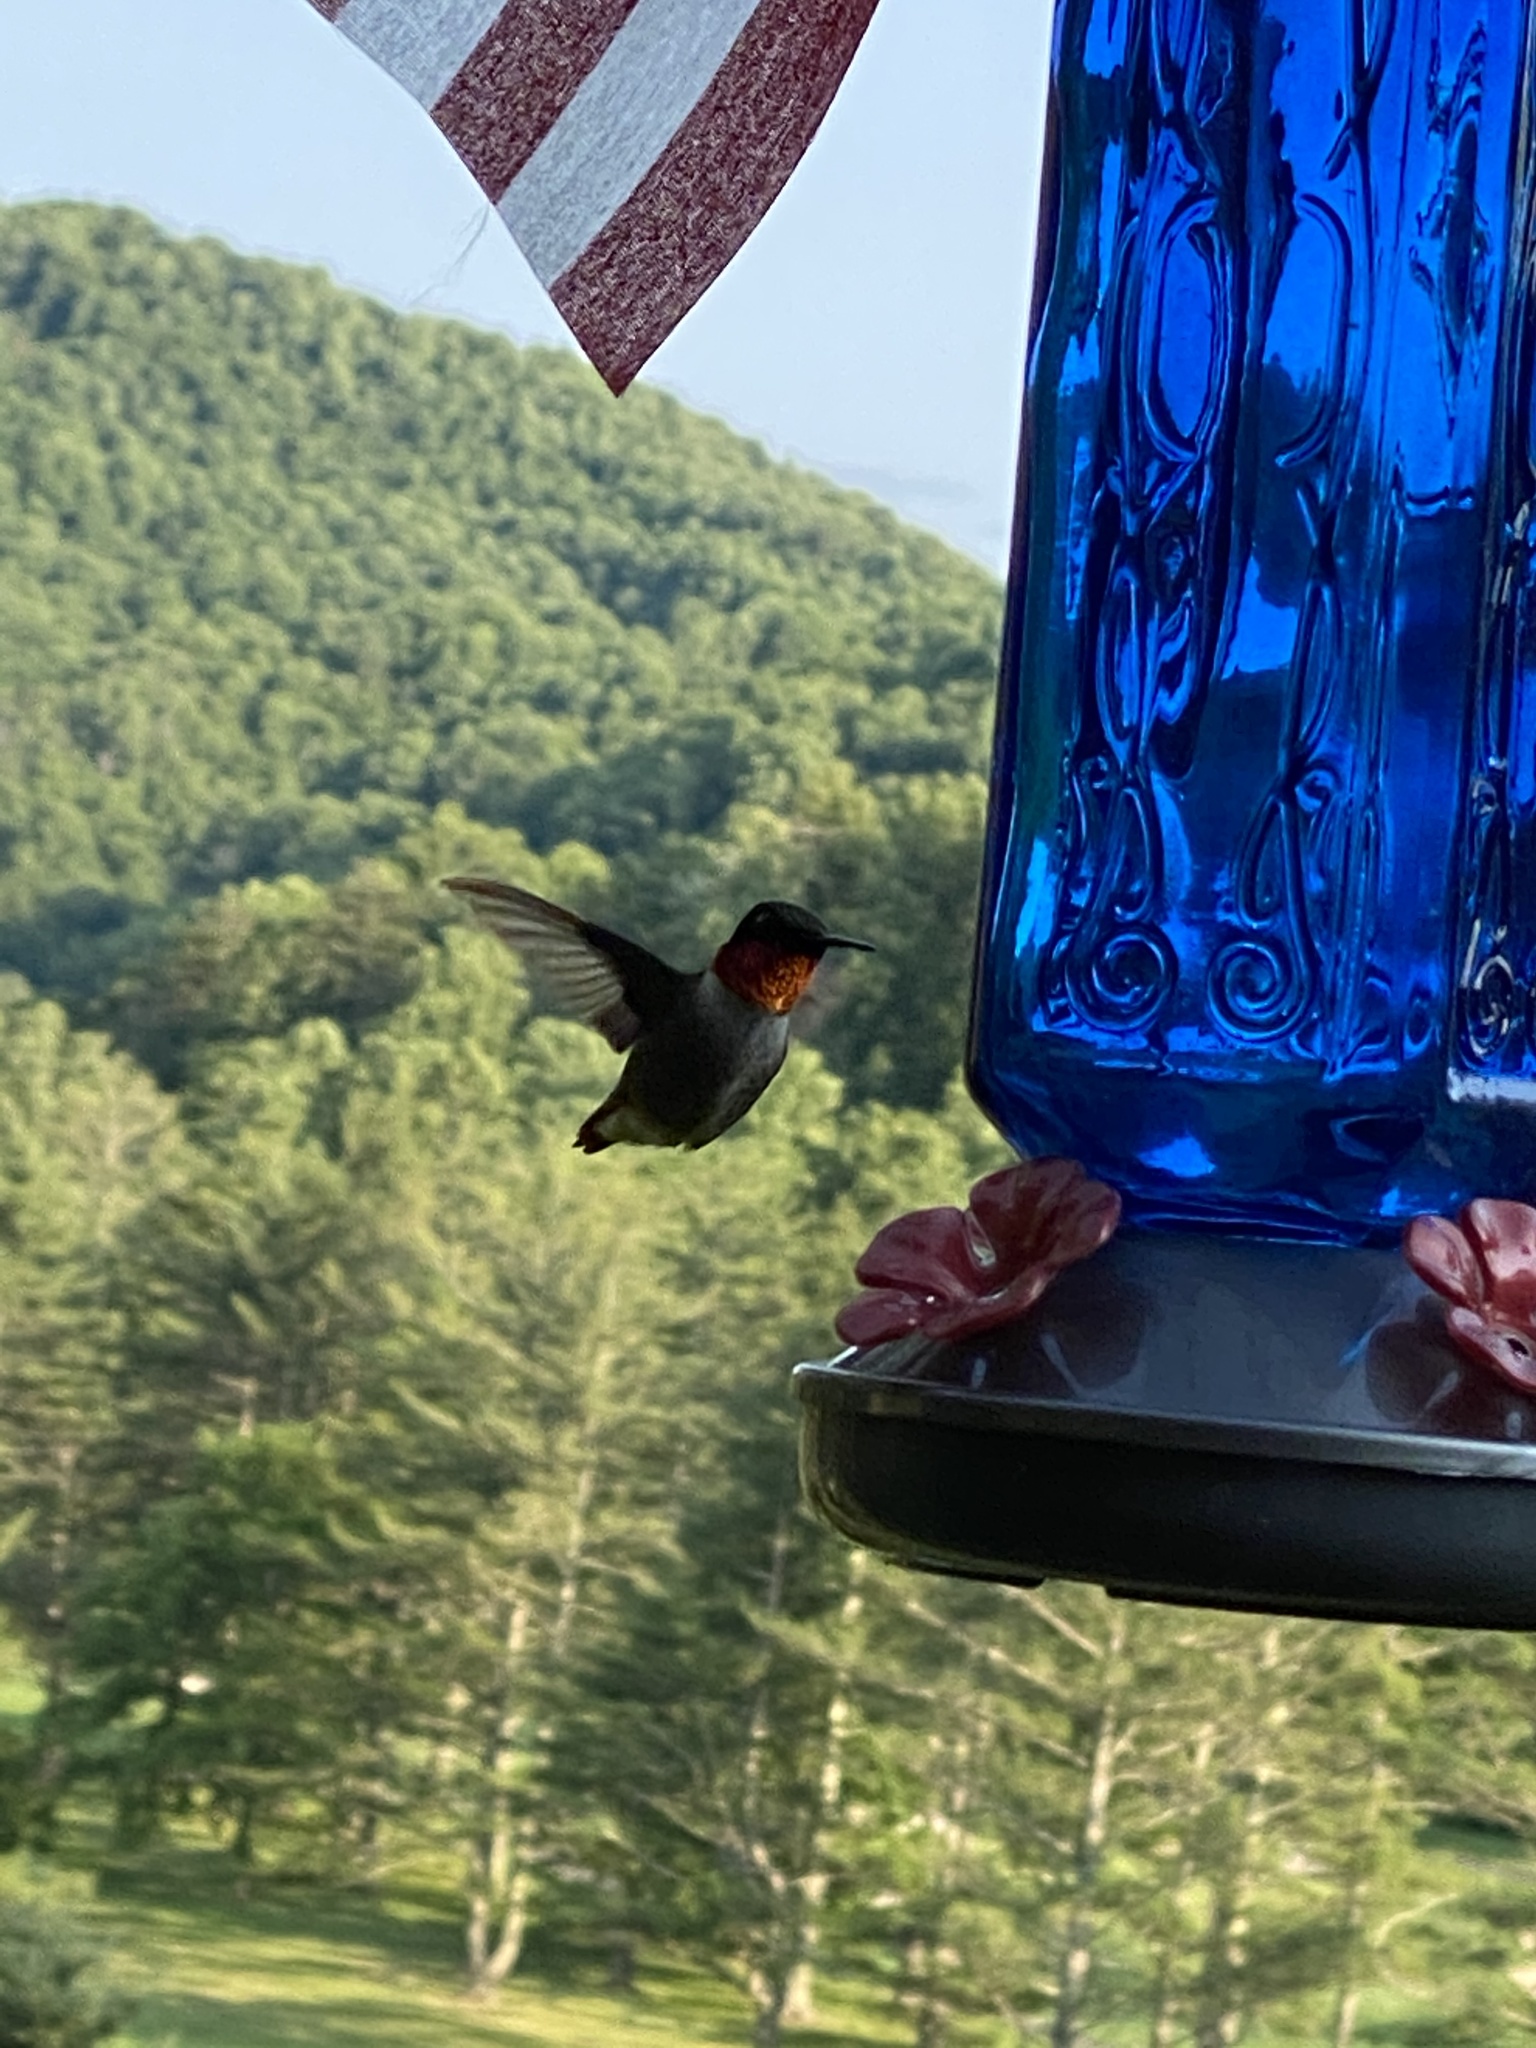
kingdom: Animalia
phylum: Chordata
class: Aves
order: Apodiformes
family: Trochilidae
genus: Archilochus
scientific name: Archilochus colubris
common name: Ruby-throated hummingbird
